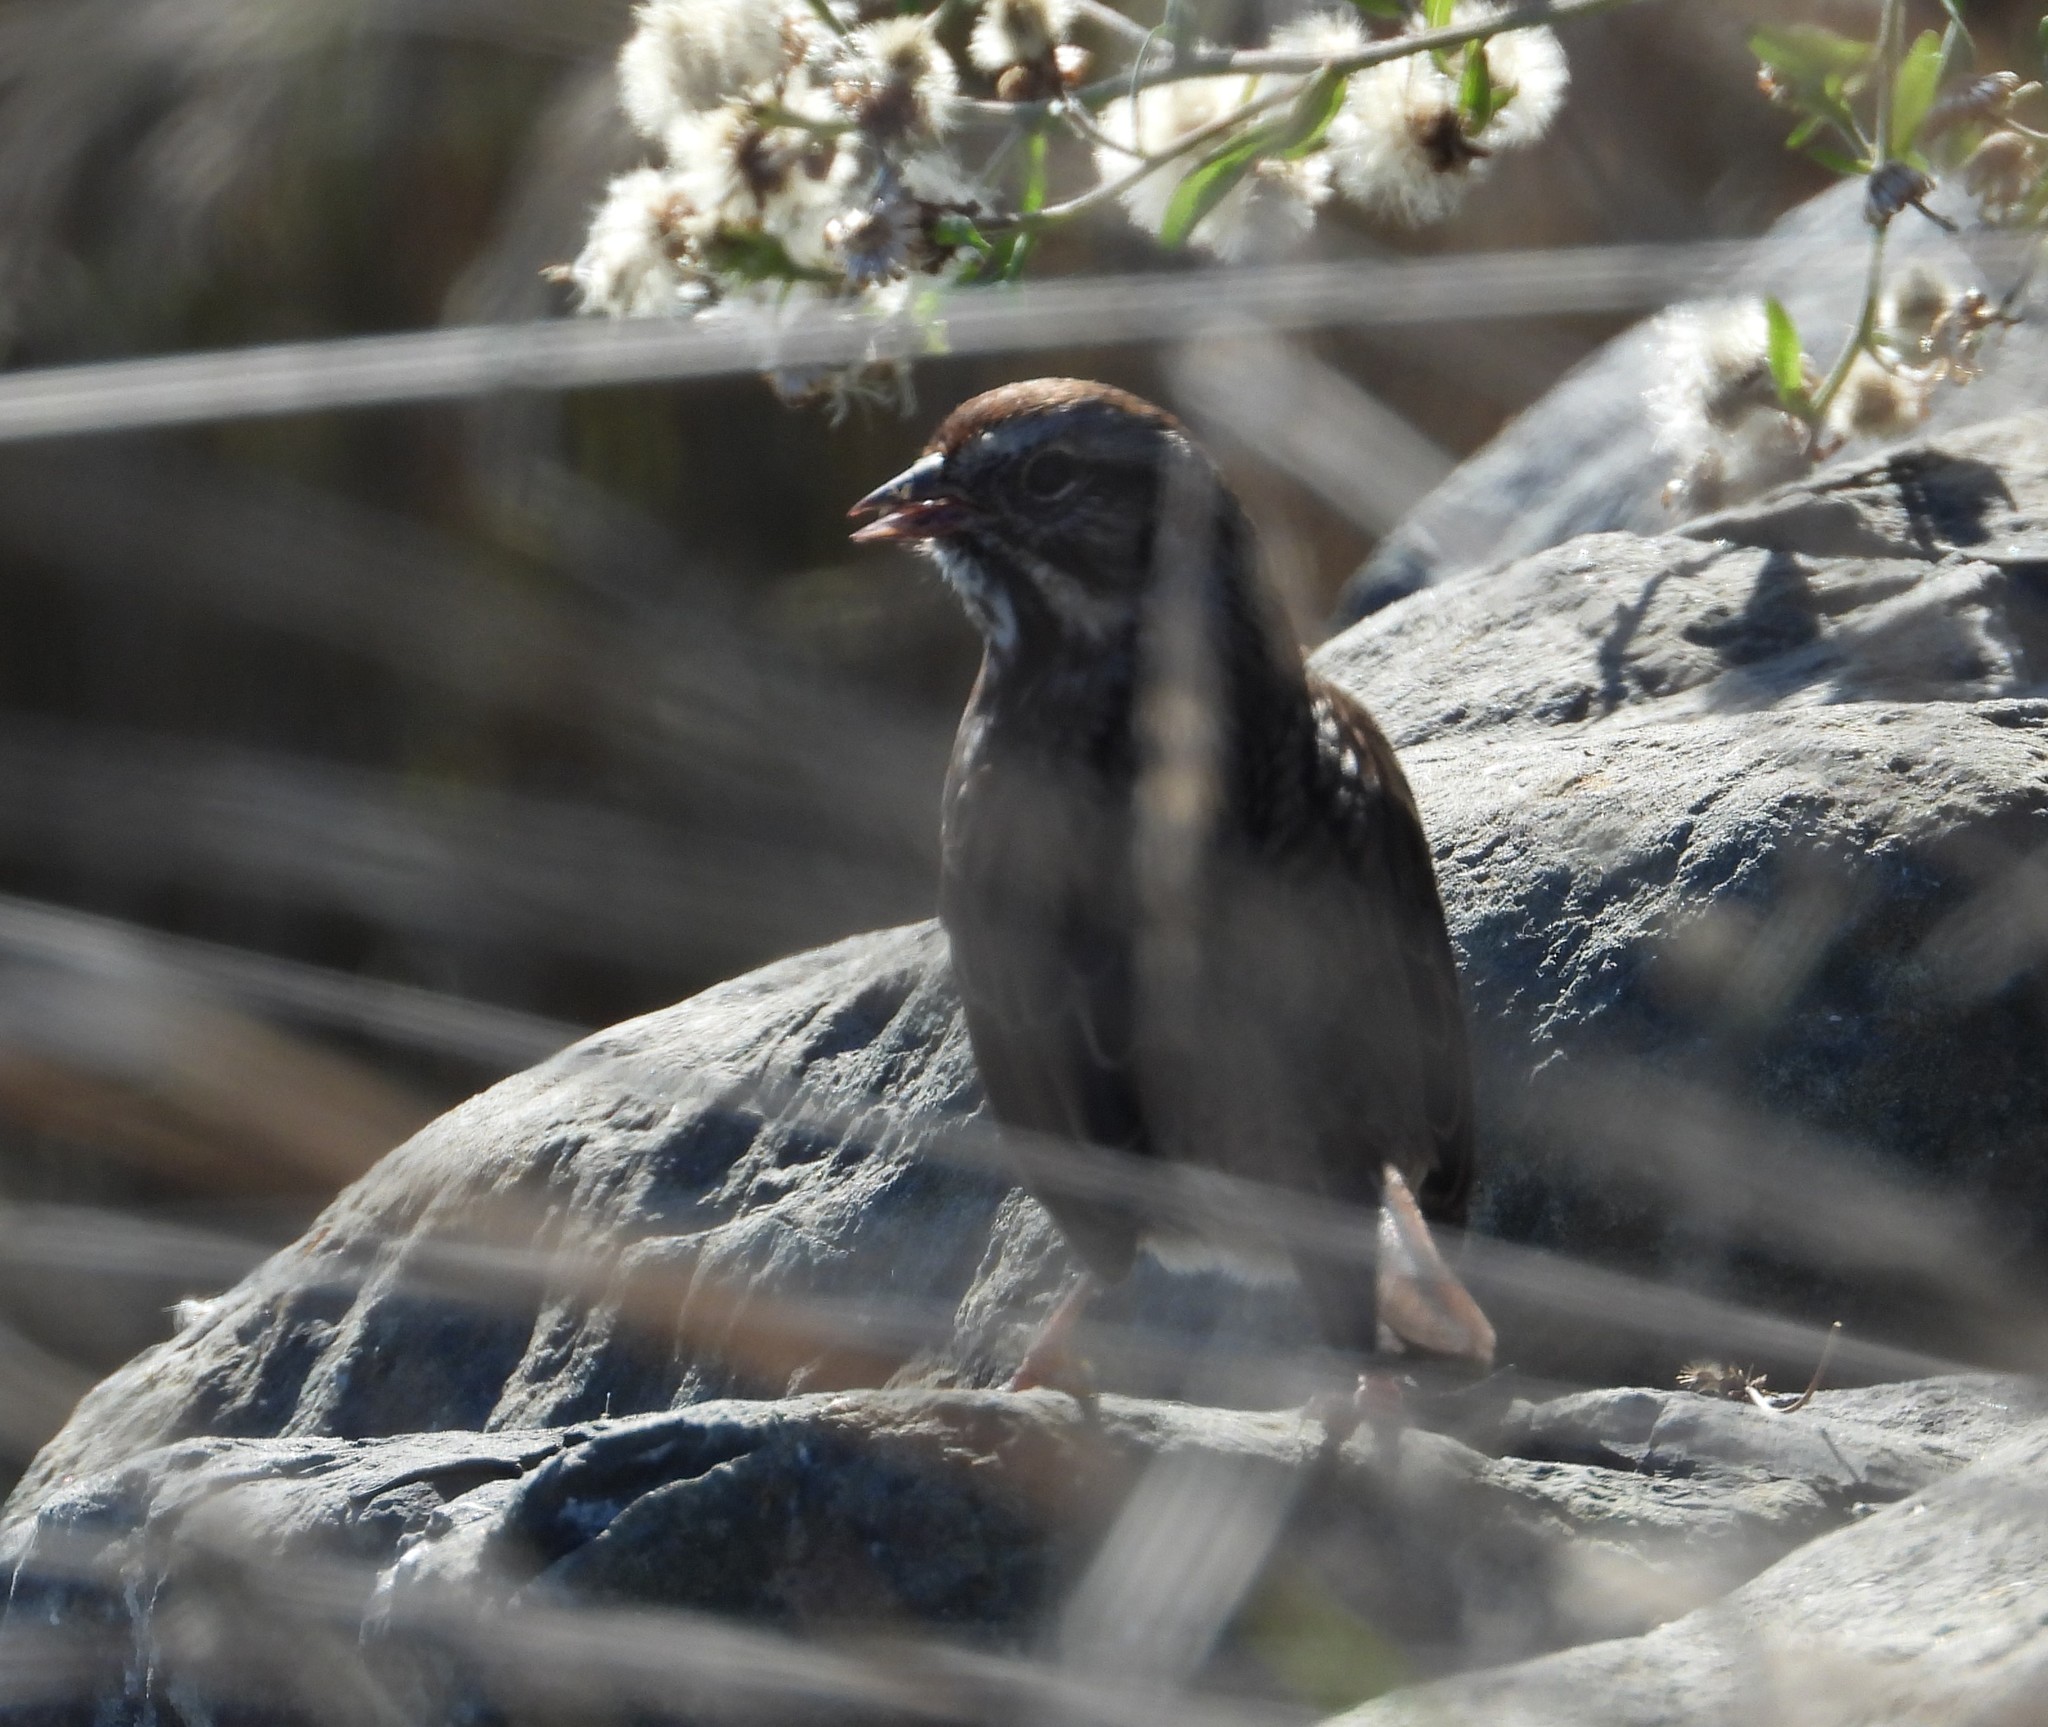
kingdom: Animalia
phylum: Chordata
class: Aves
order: Passeriformes
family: Passerellidae
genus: Melospiza
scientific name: Melospiza melodia
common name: Song sparrow
